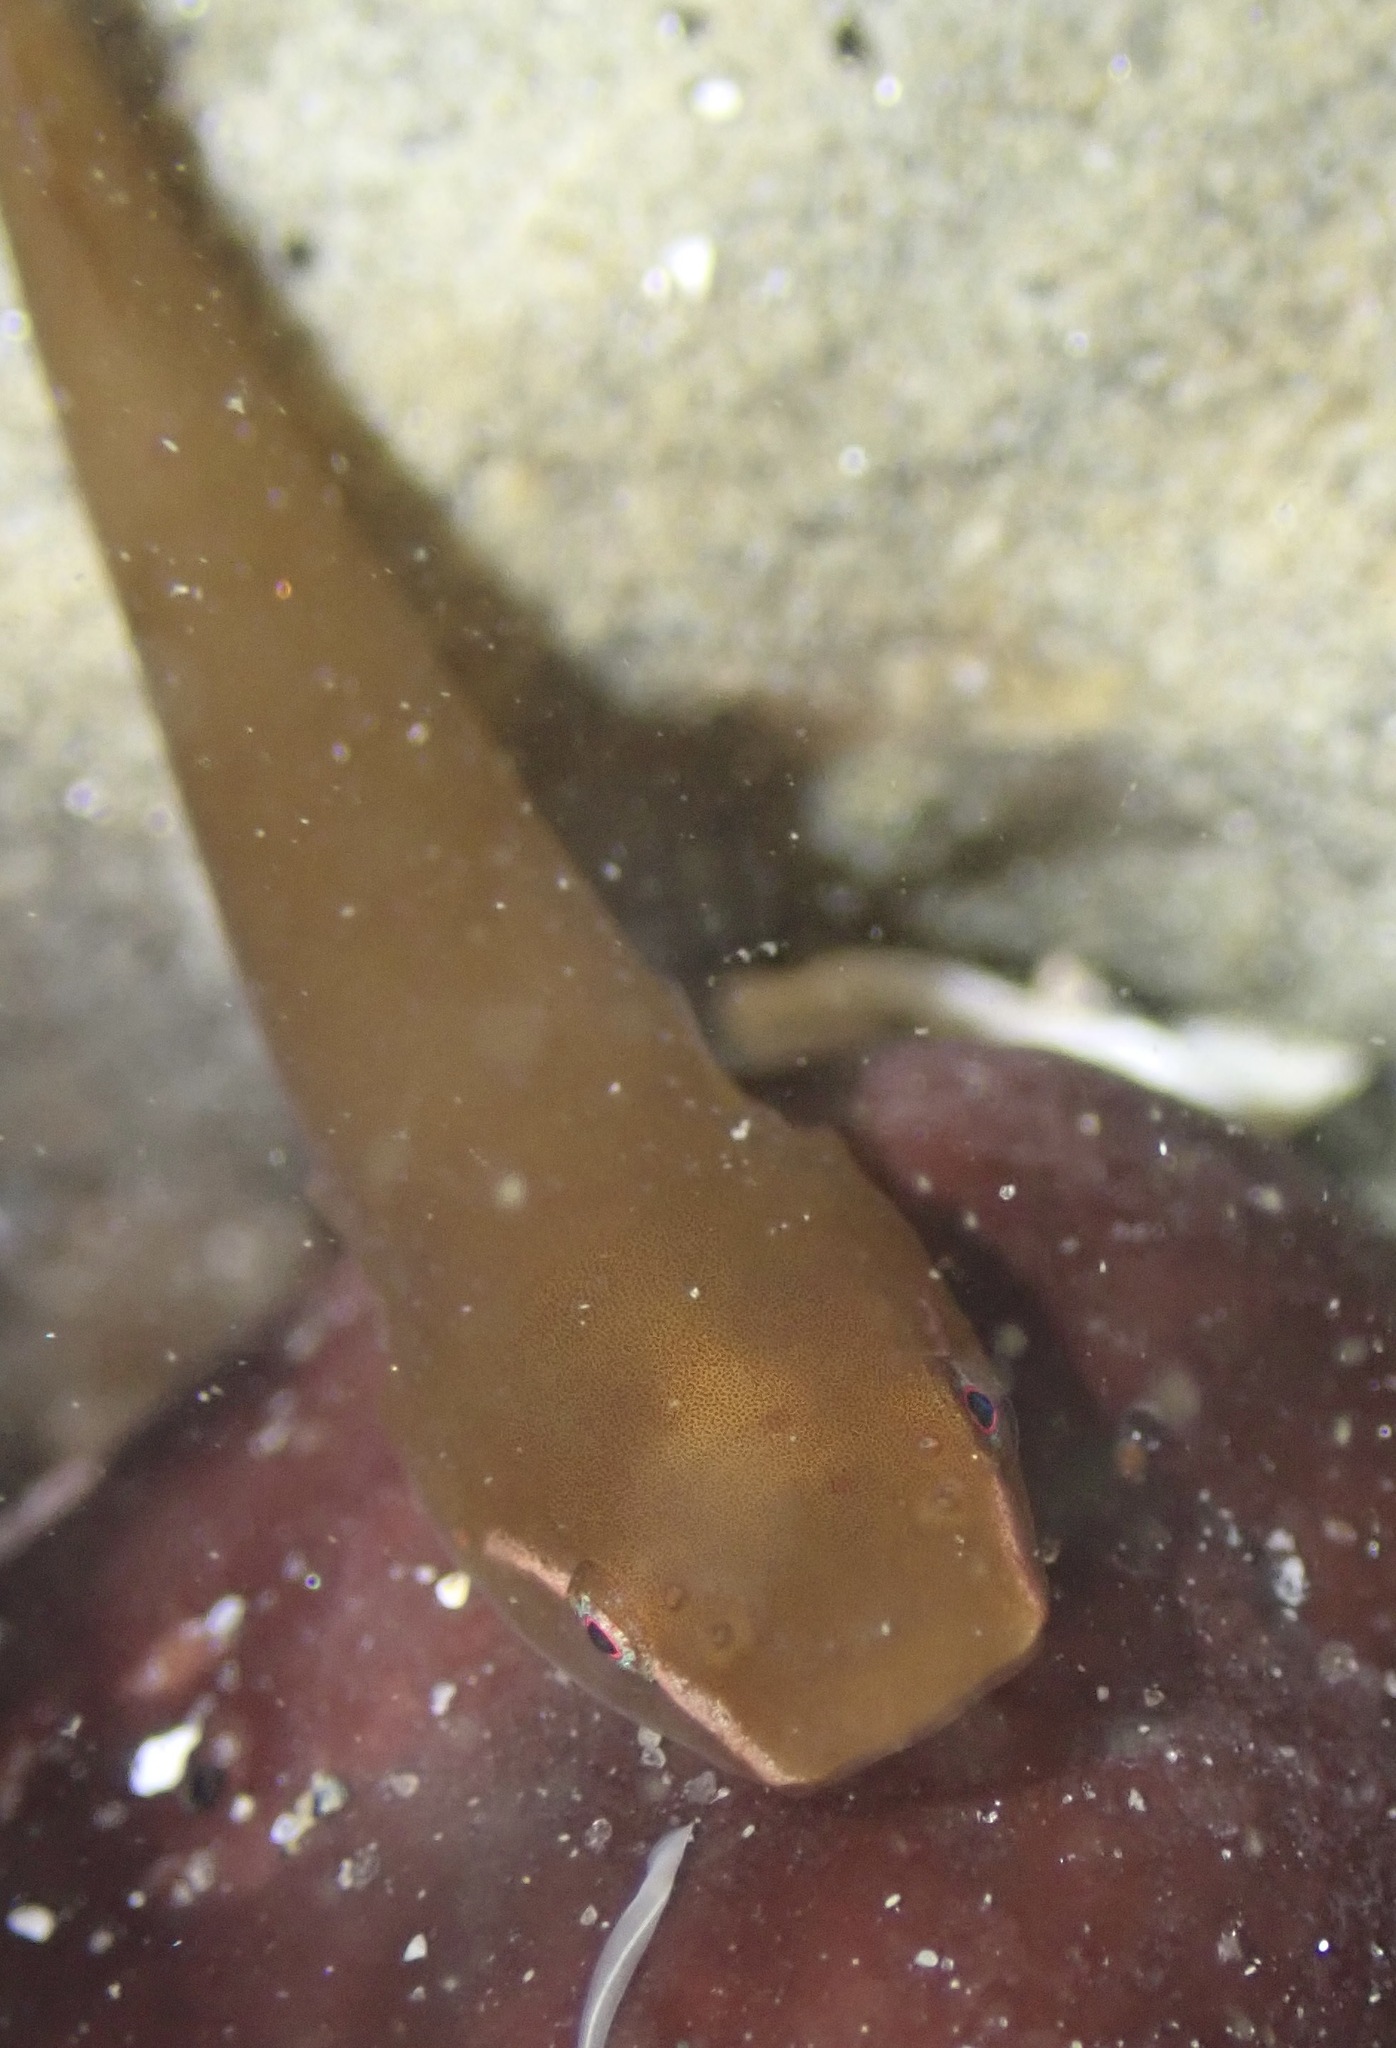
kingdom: Animalia
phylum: Chordata
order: Gobiesociformes
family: Gobiesocidae
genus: Rimicola
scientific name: Rimicola eigenmanni
